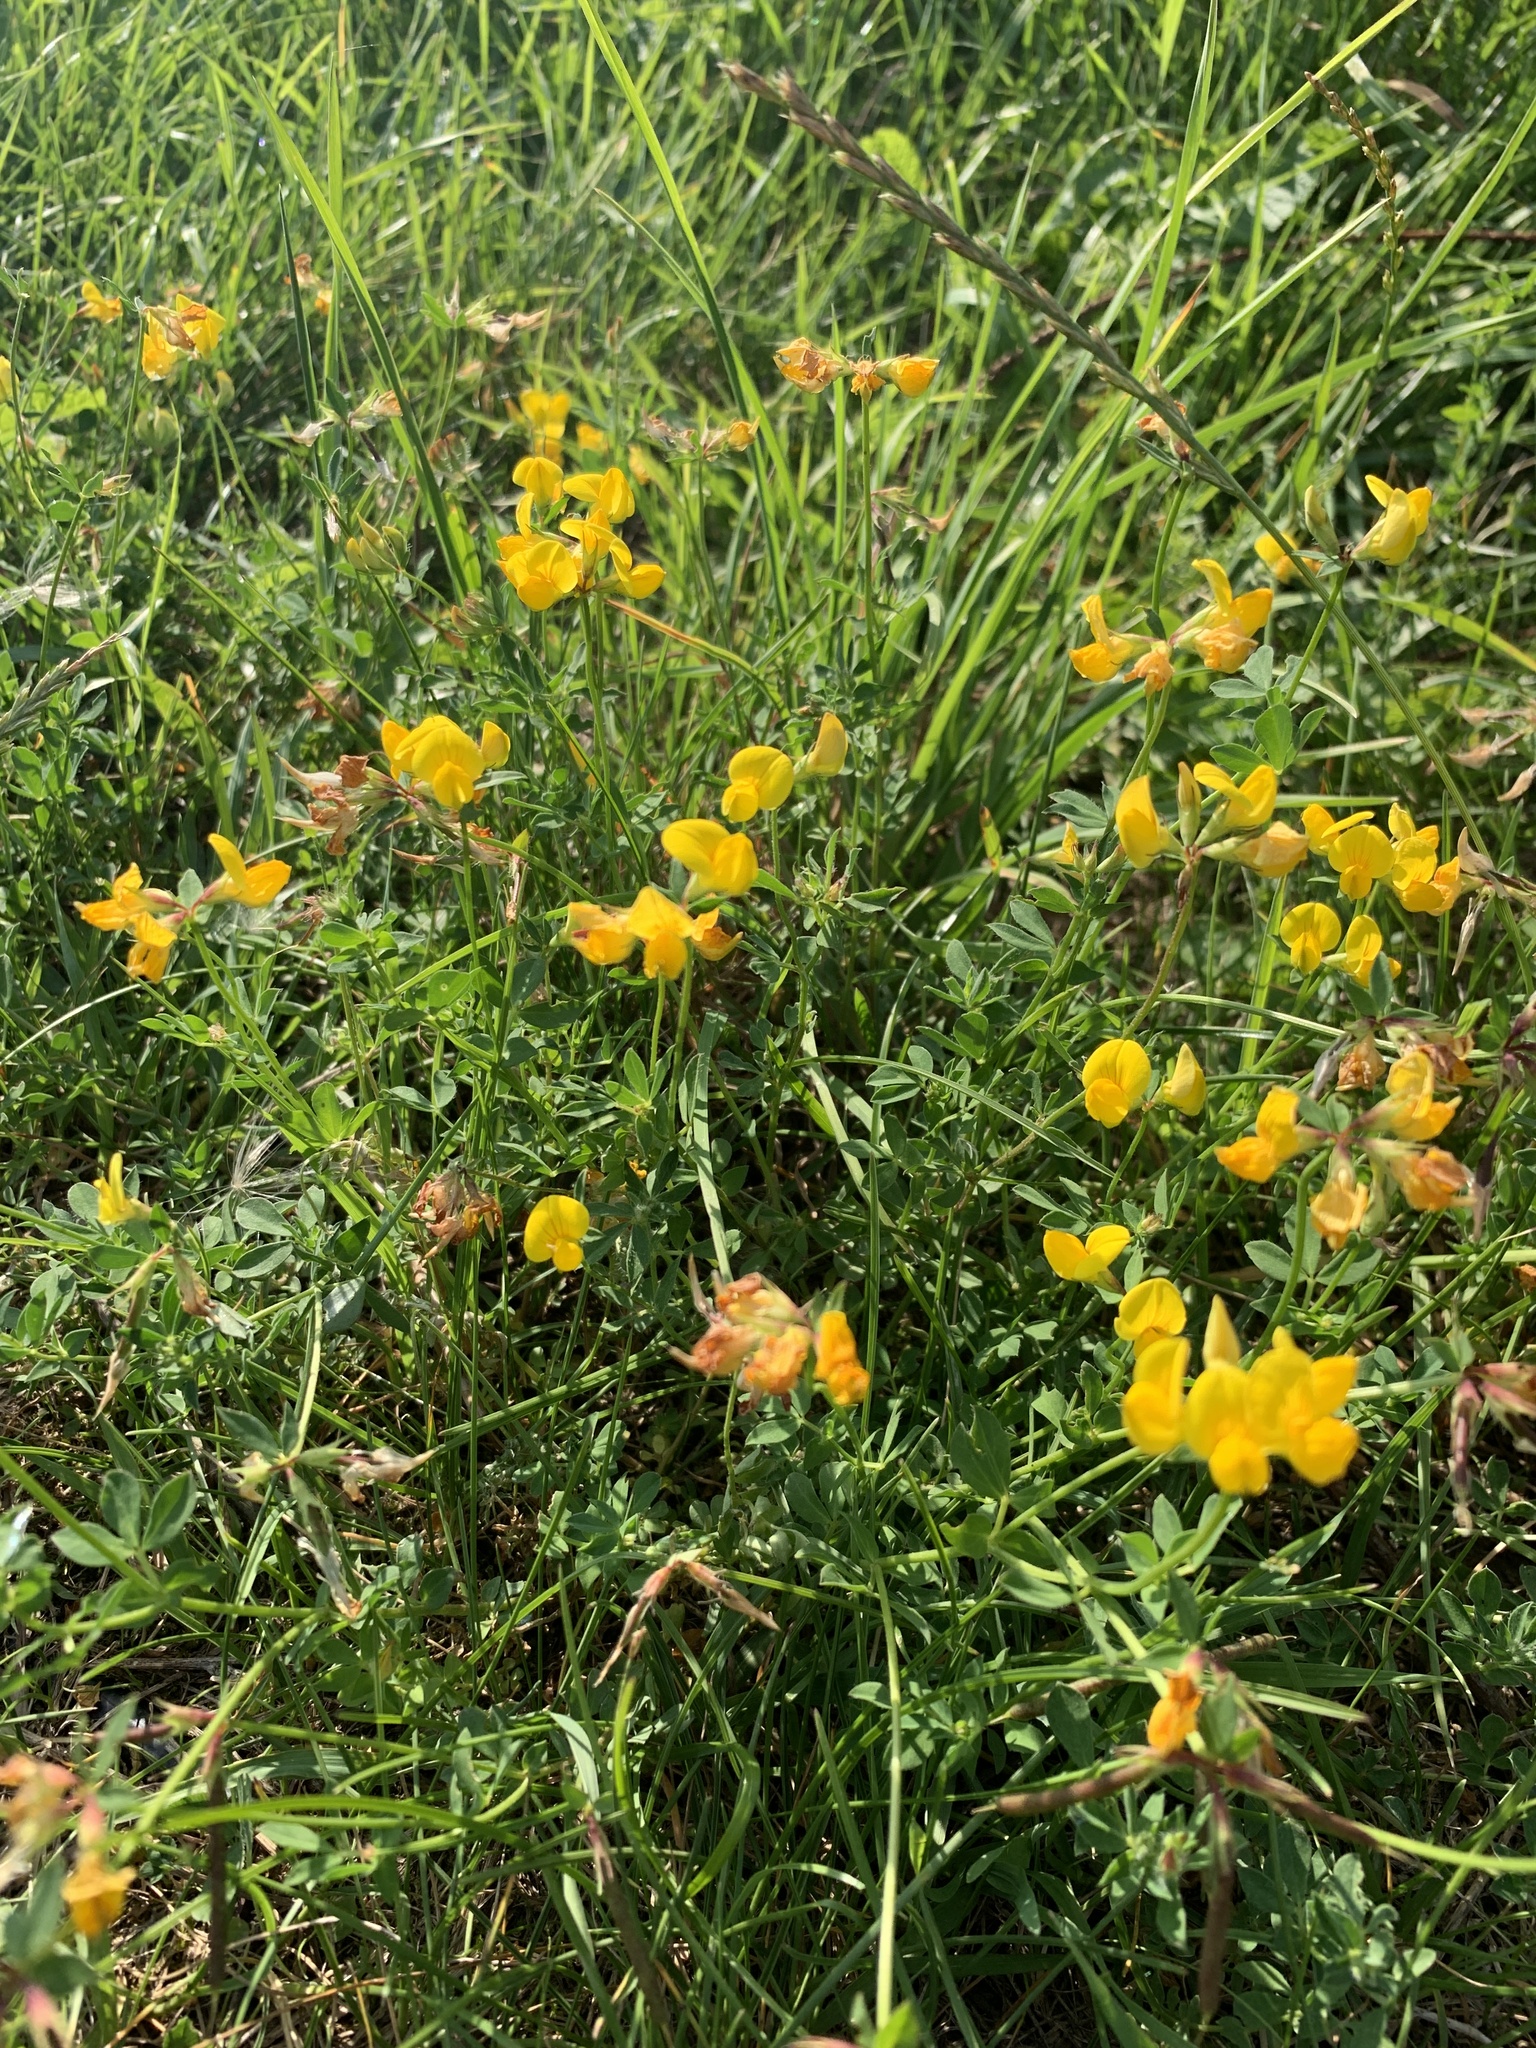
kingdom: Plantae
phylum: Tracheophyta
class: Magnoliopsida
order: Fabales
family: Fabaceae
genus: Lotus
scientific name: Lotus corniculatus
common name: Common bird's-foot-trefoil
